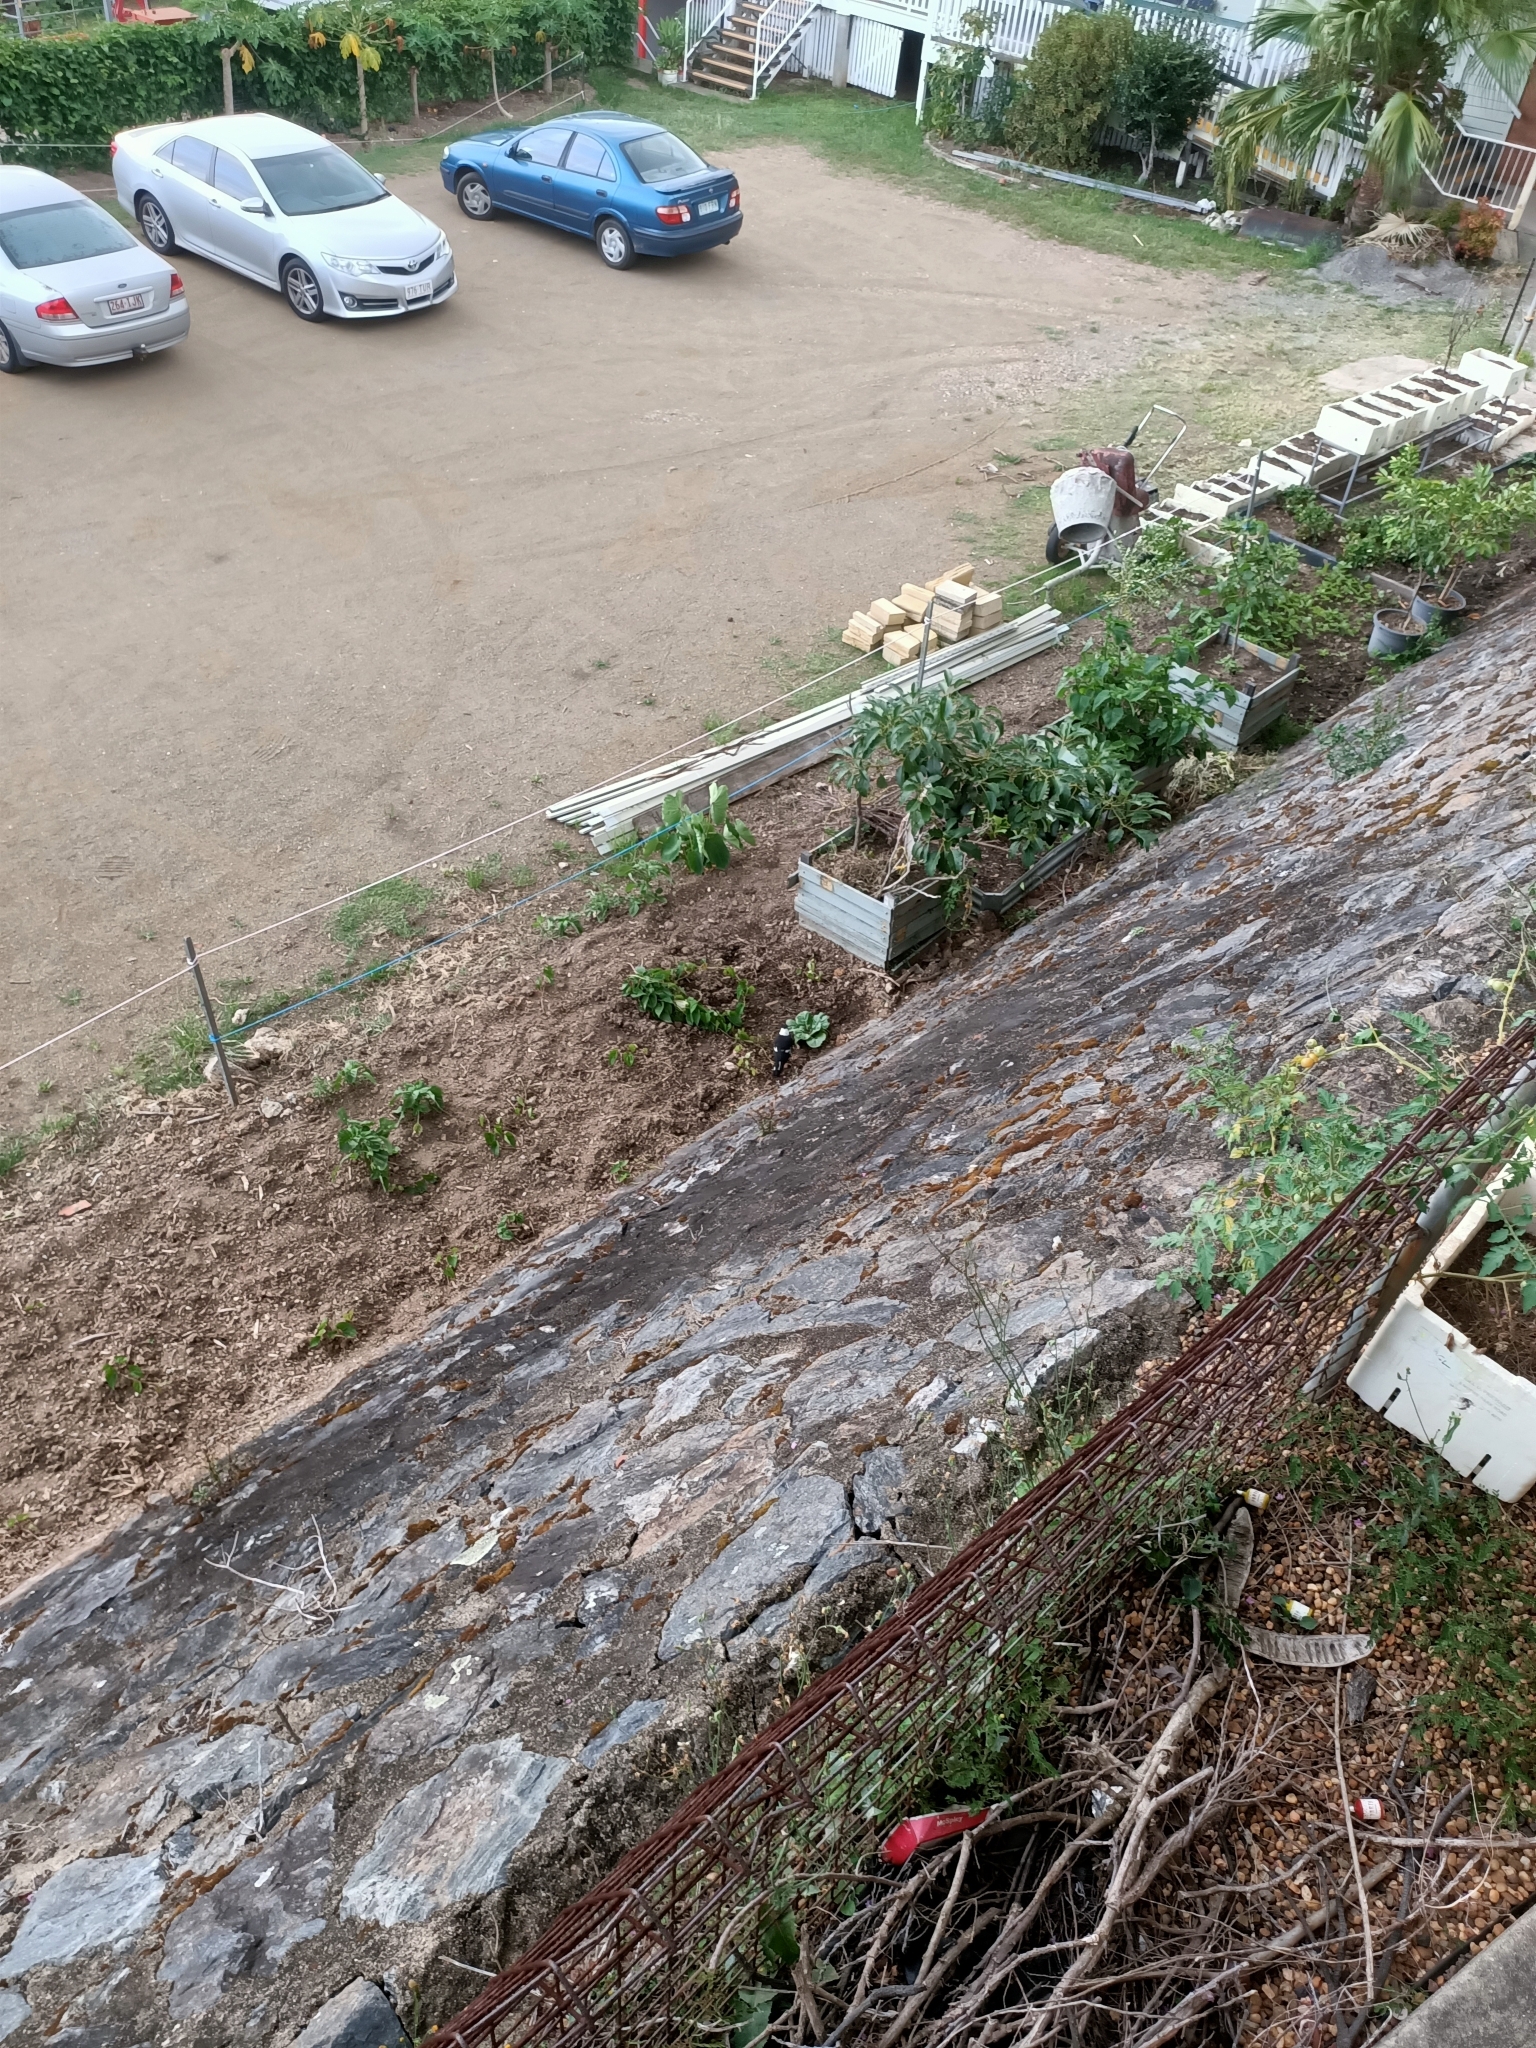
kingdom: Animalia
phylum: Chordata
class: Aves
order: Passeriformes
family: Cracticidae
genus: Gymnorhina
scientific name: Gymnorhina tibicen
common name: Australian magpie
